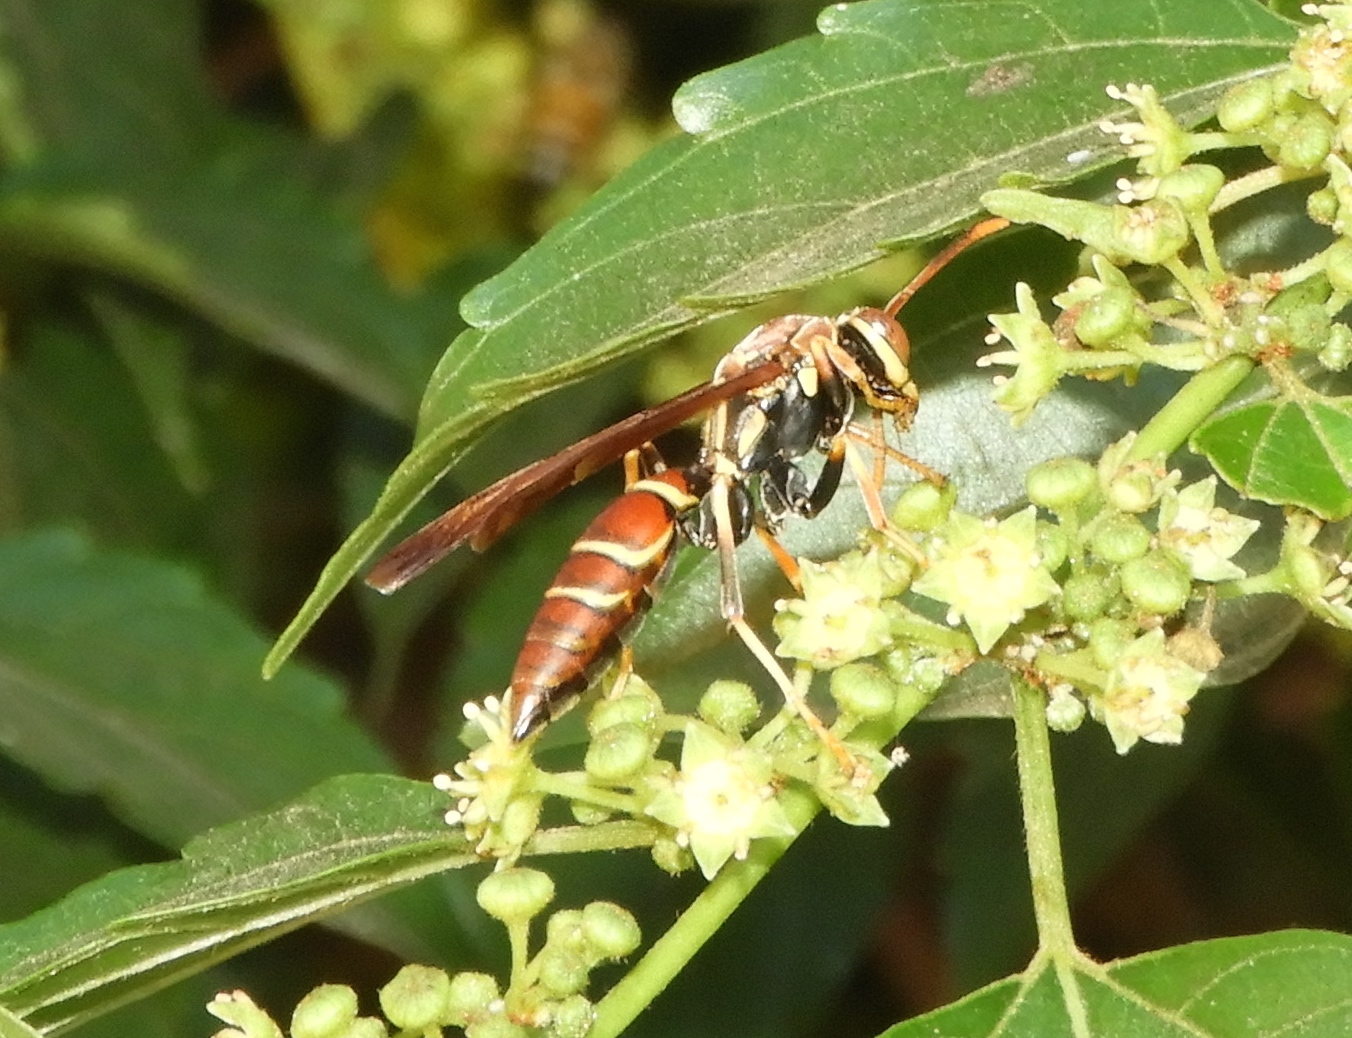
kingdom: Animalia
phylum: Arthropoda
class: Insecta
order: Hymenoptera
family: Eumenidae
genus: Polistes
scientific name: Polistes instabilis
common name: Unstable paper wasp
